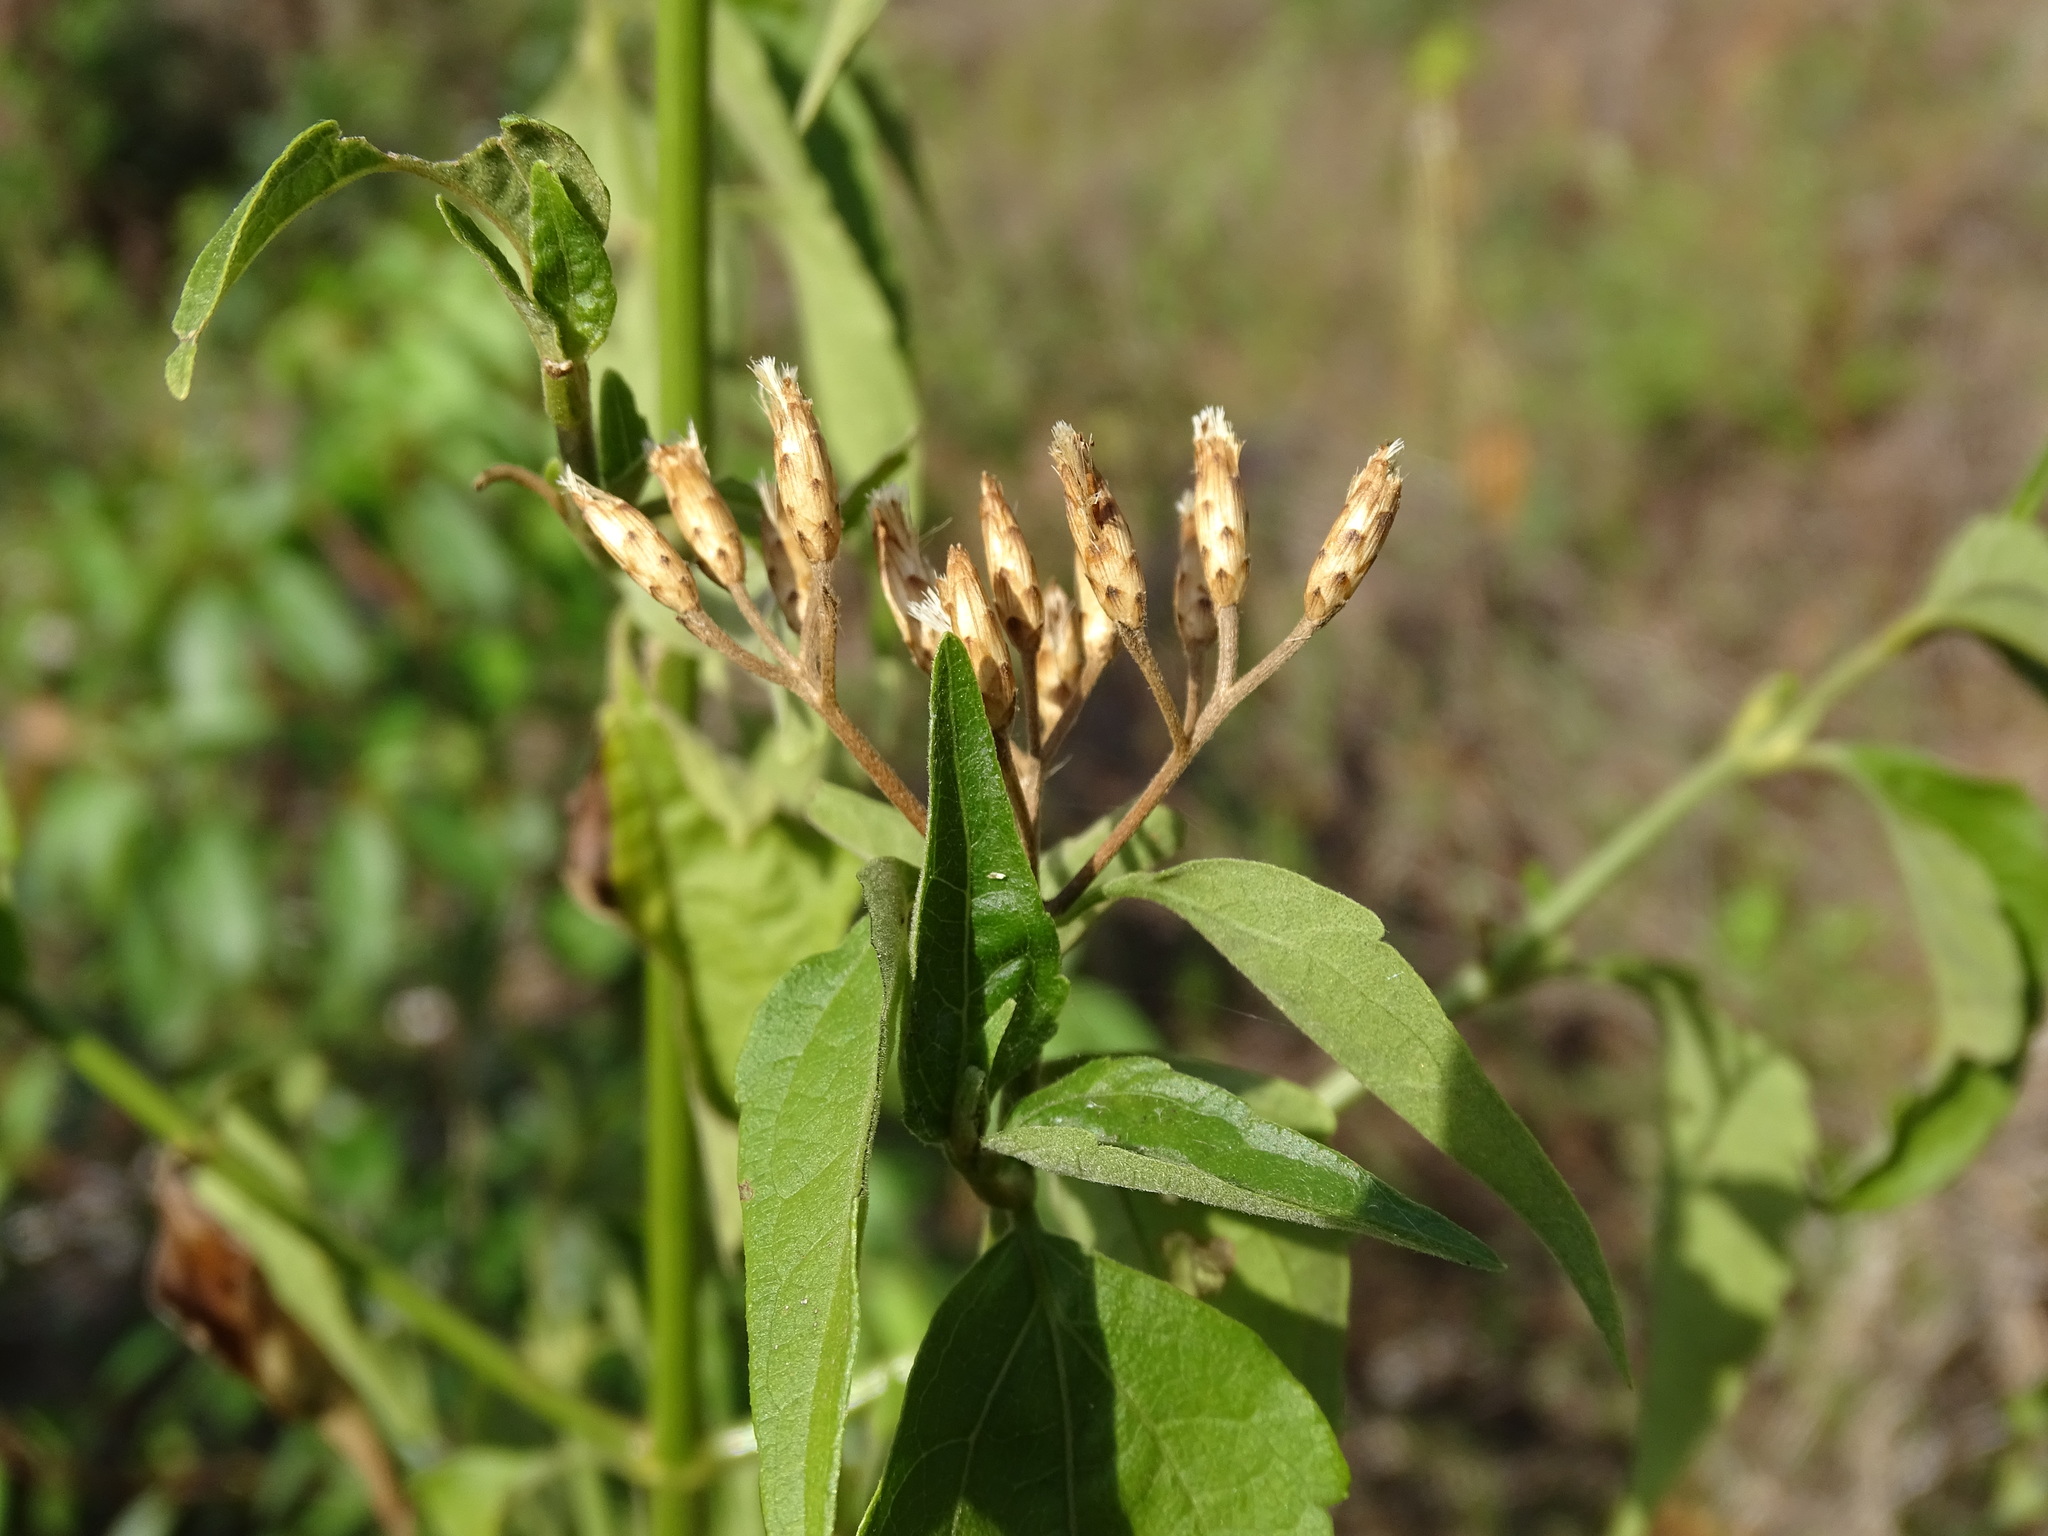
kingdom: Plantae
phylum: Tracheophyta
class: Magnoliopsida
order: Asterales
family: Asteraceae
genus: Chromolaena
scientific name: Chromolaena odorata
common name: Siamweed
